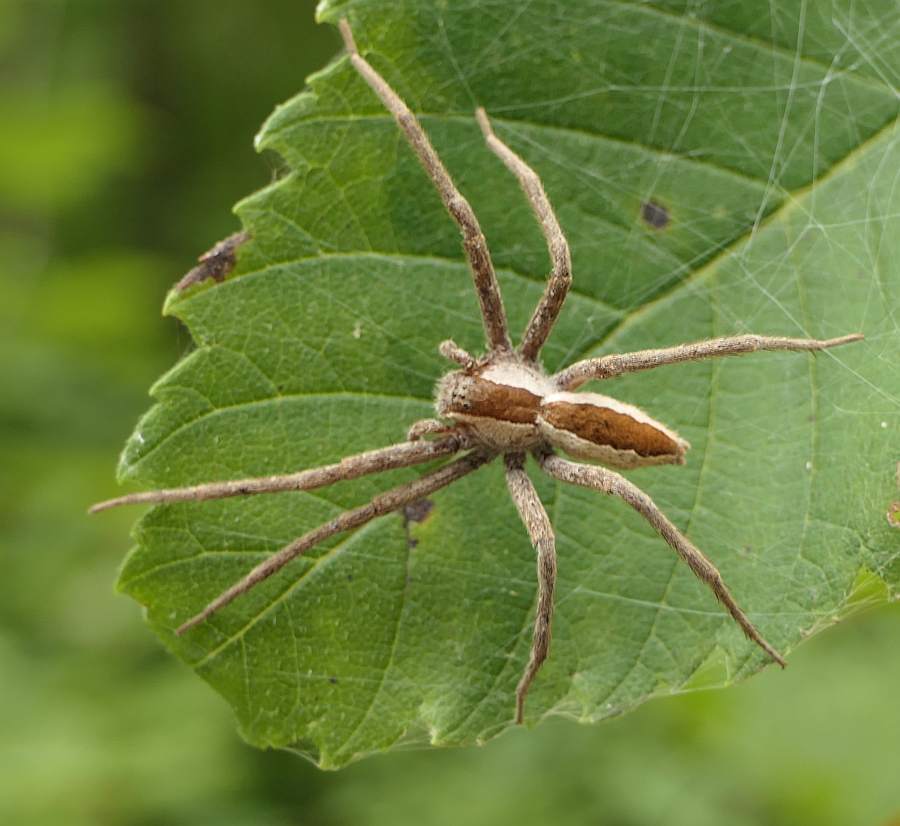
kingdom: Animalia
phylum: Arthropoda
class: Arachnida
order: Araneae
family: Pisauridae
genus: Pisaurina
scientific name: Pisaurina mira
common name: American nursery web spider
